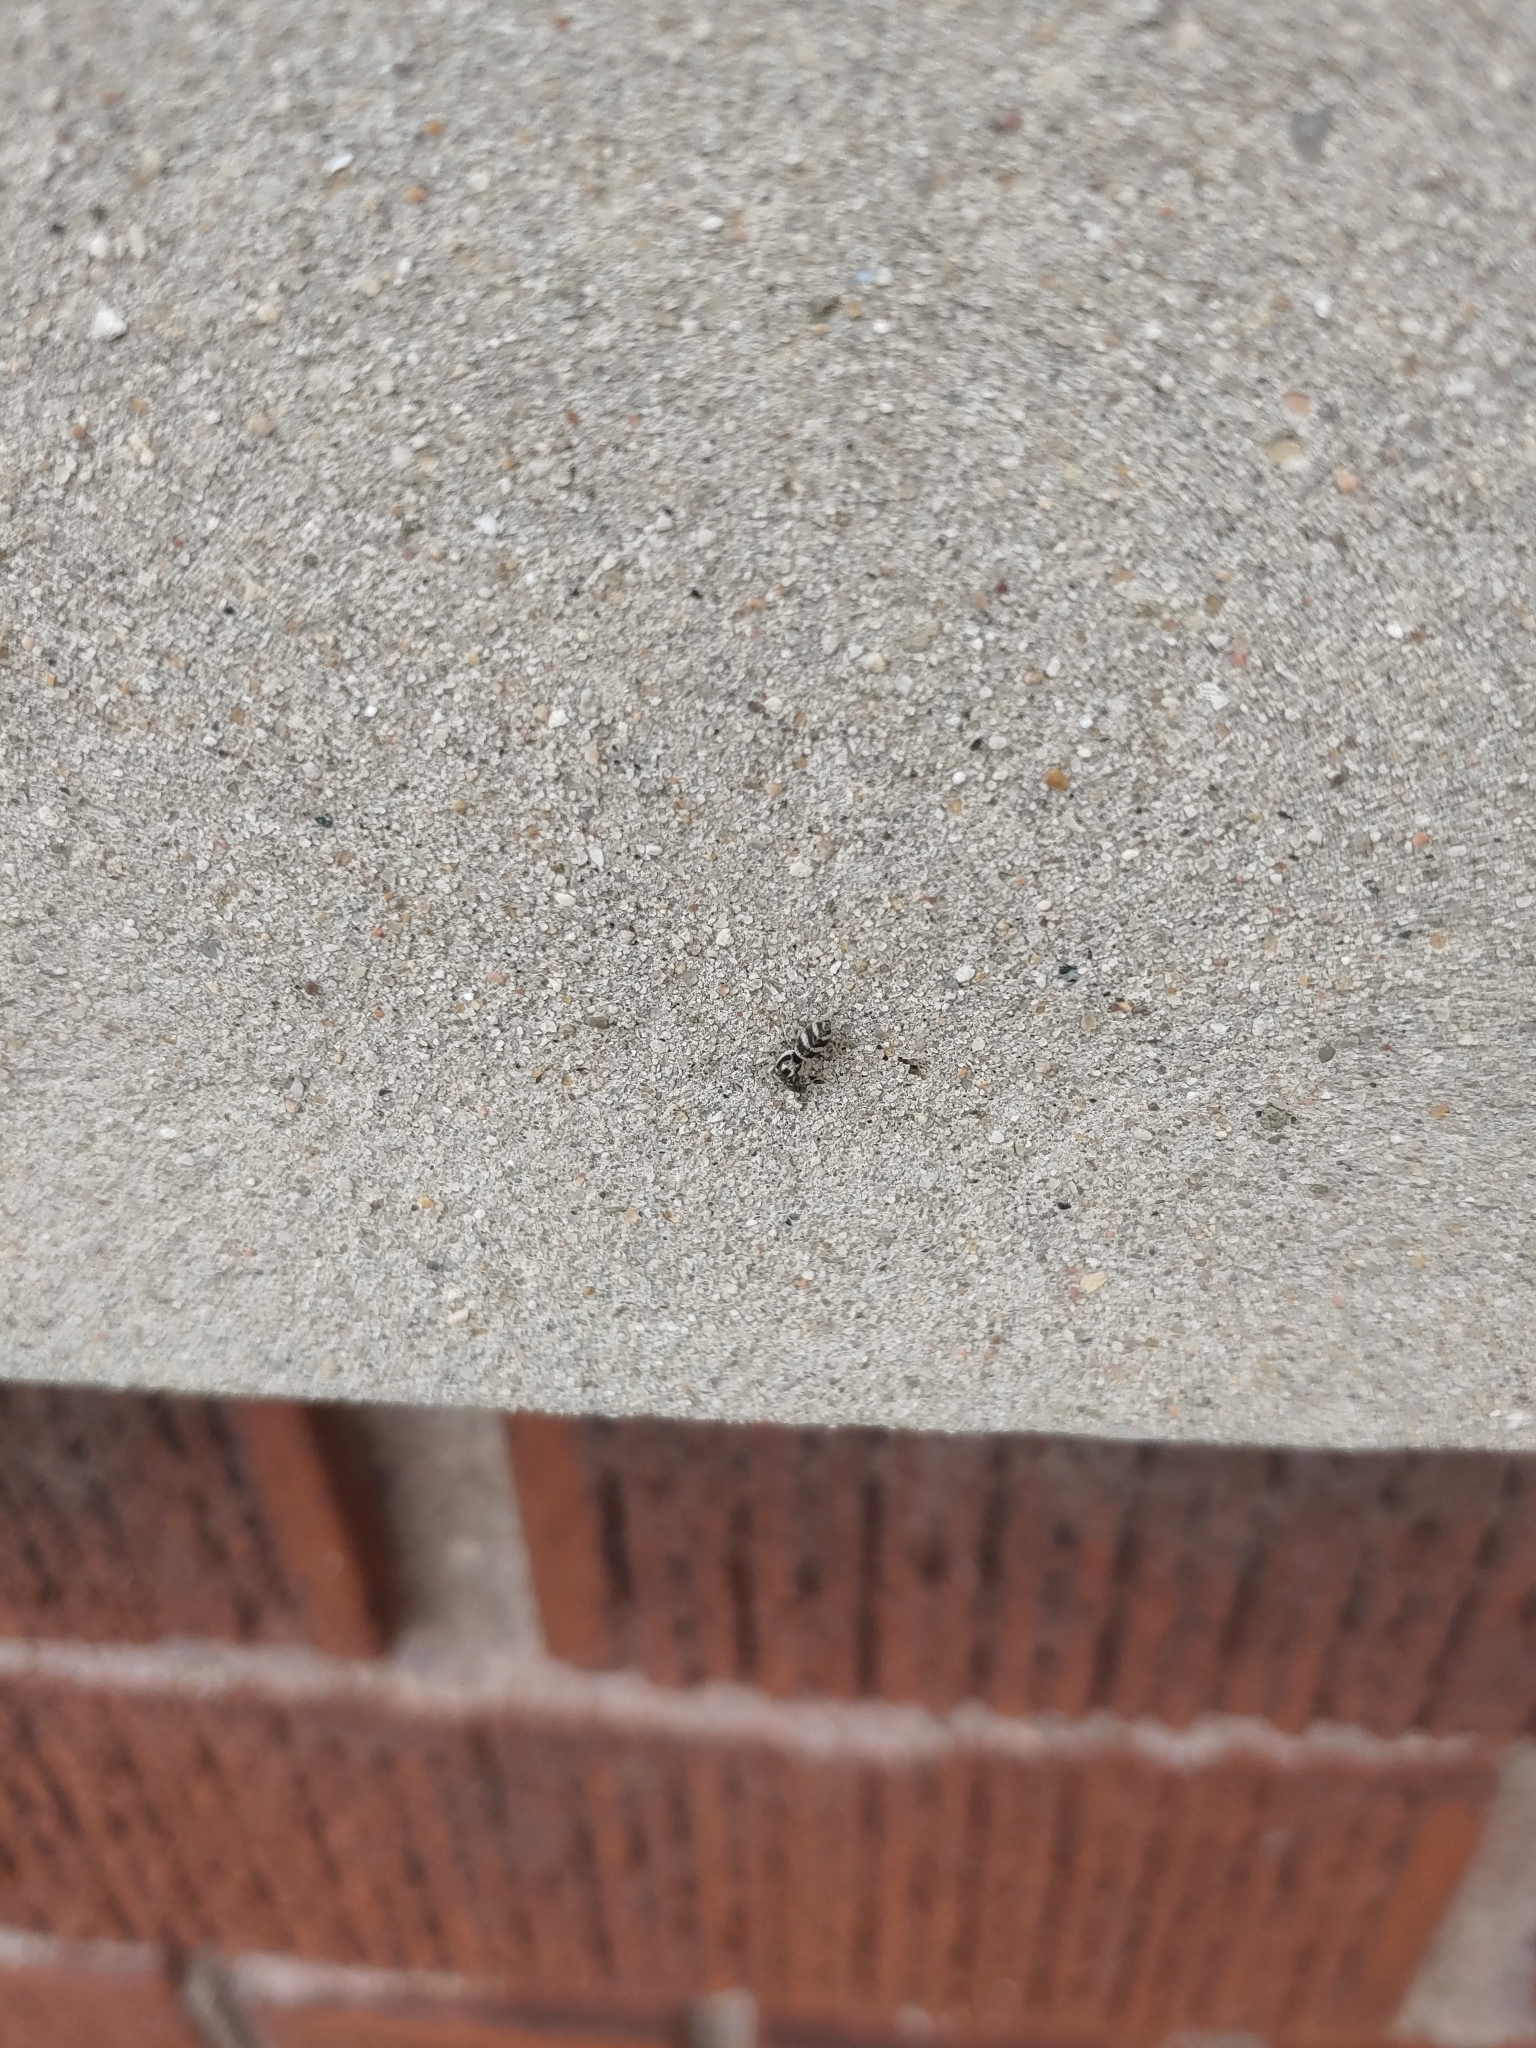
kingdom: Animalia
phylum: Arthropoda
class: Arachnida
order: Araneae
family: Salticidae
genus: Salticus
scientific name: Salticus scenicus
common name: Zebra jumper
